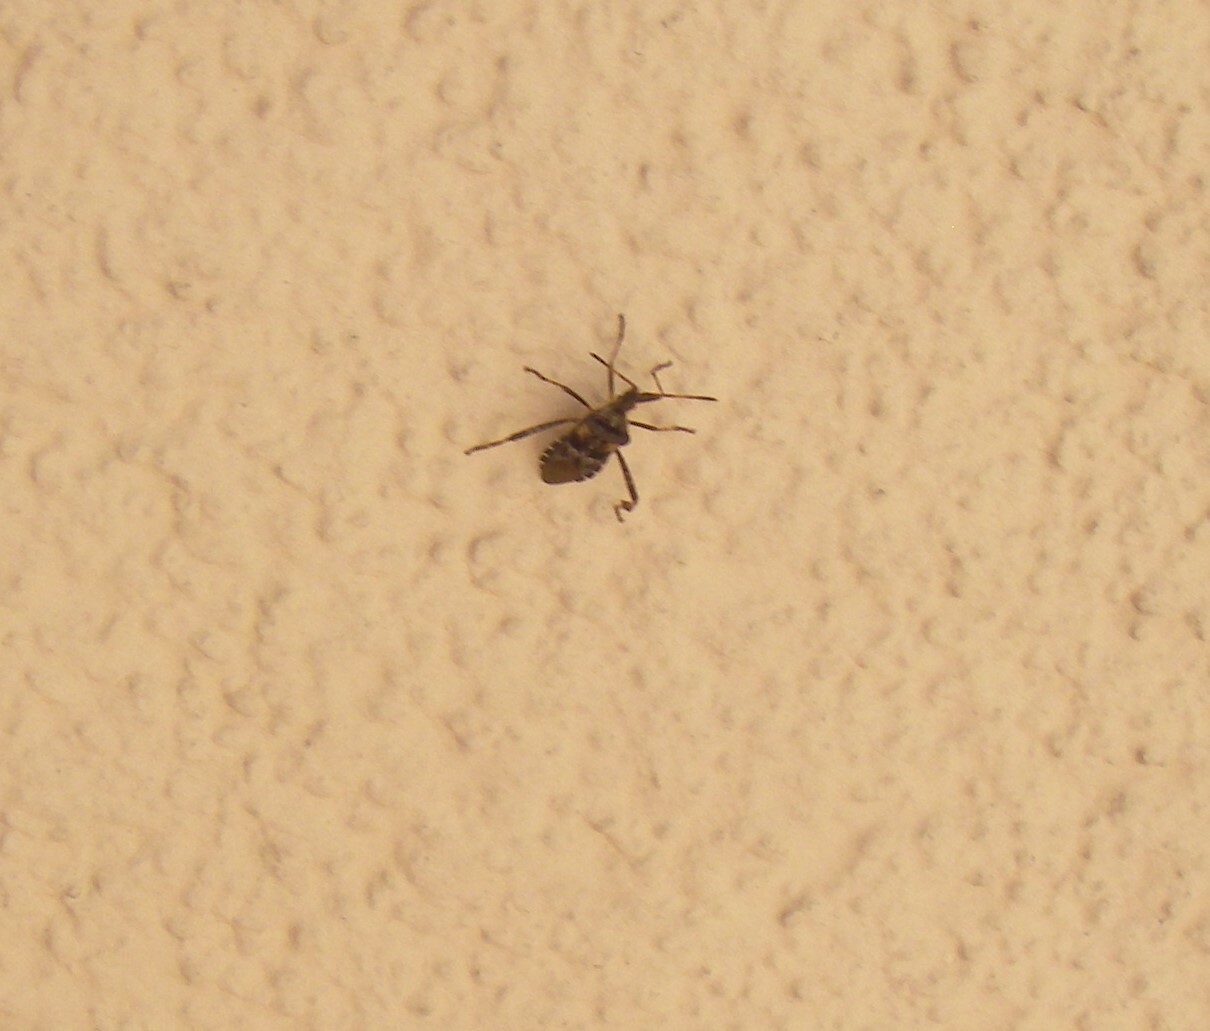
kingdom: Animalia
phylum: Arthropoda
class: Insecta
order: Hemiptera
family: Coreidae
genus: Leptoglossus
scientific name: Leptoglossus occidentalis
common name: Western conifer-seed bug
